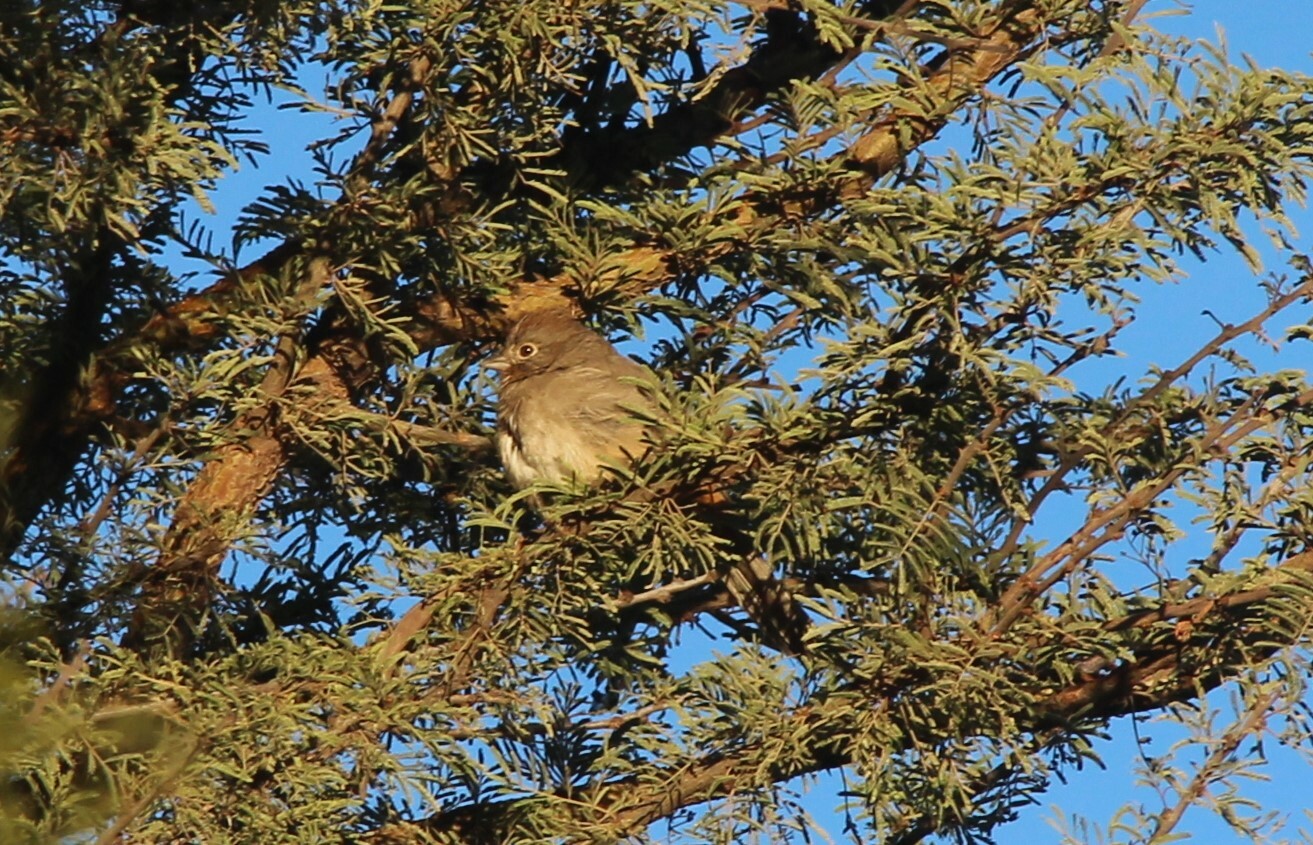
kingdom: Animalia
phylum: Chordata
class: Aves
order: Passeriformes
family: Passerellidae
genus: Melozone
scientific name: Melozone fusca
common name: Canyon towhee
